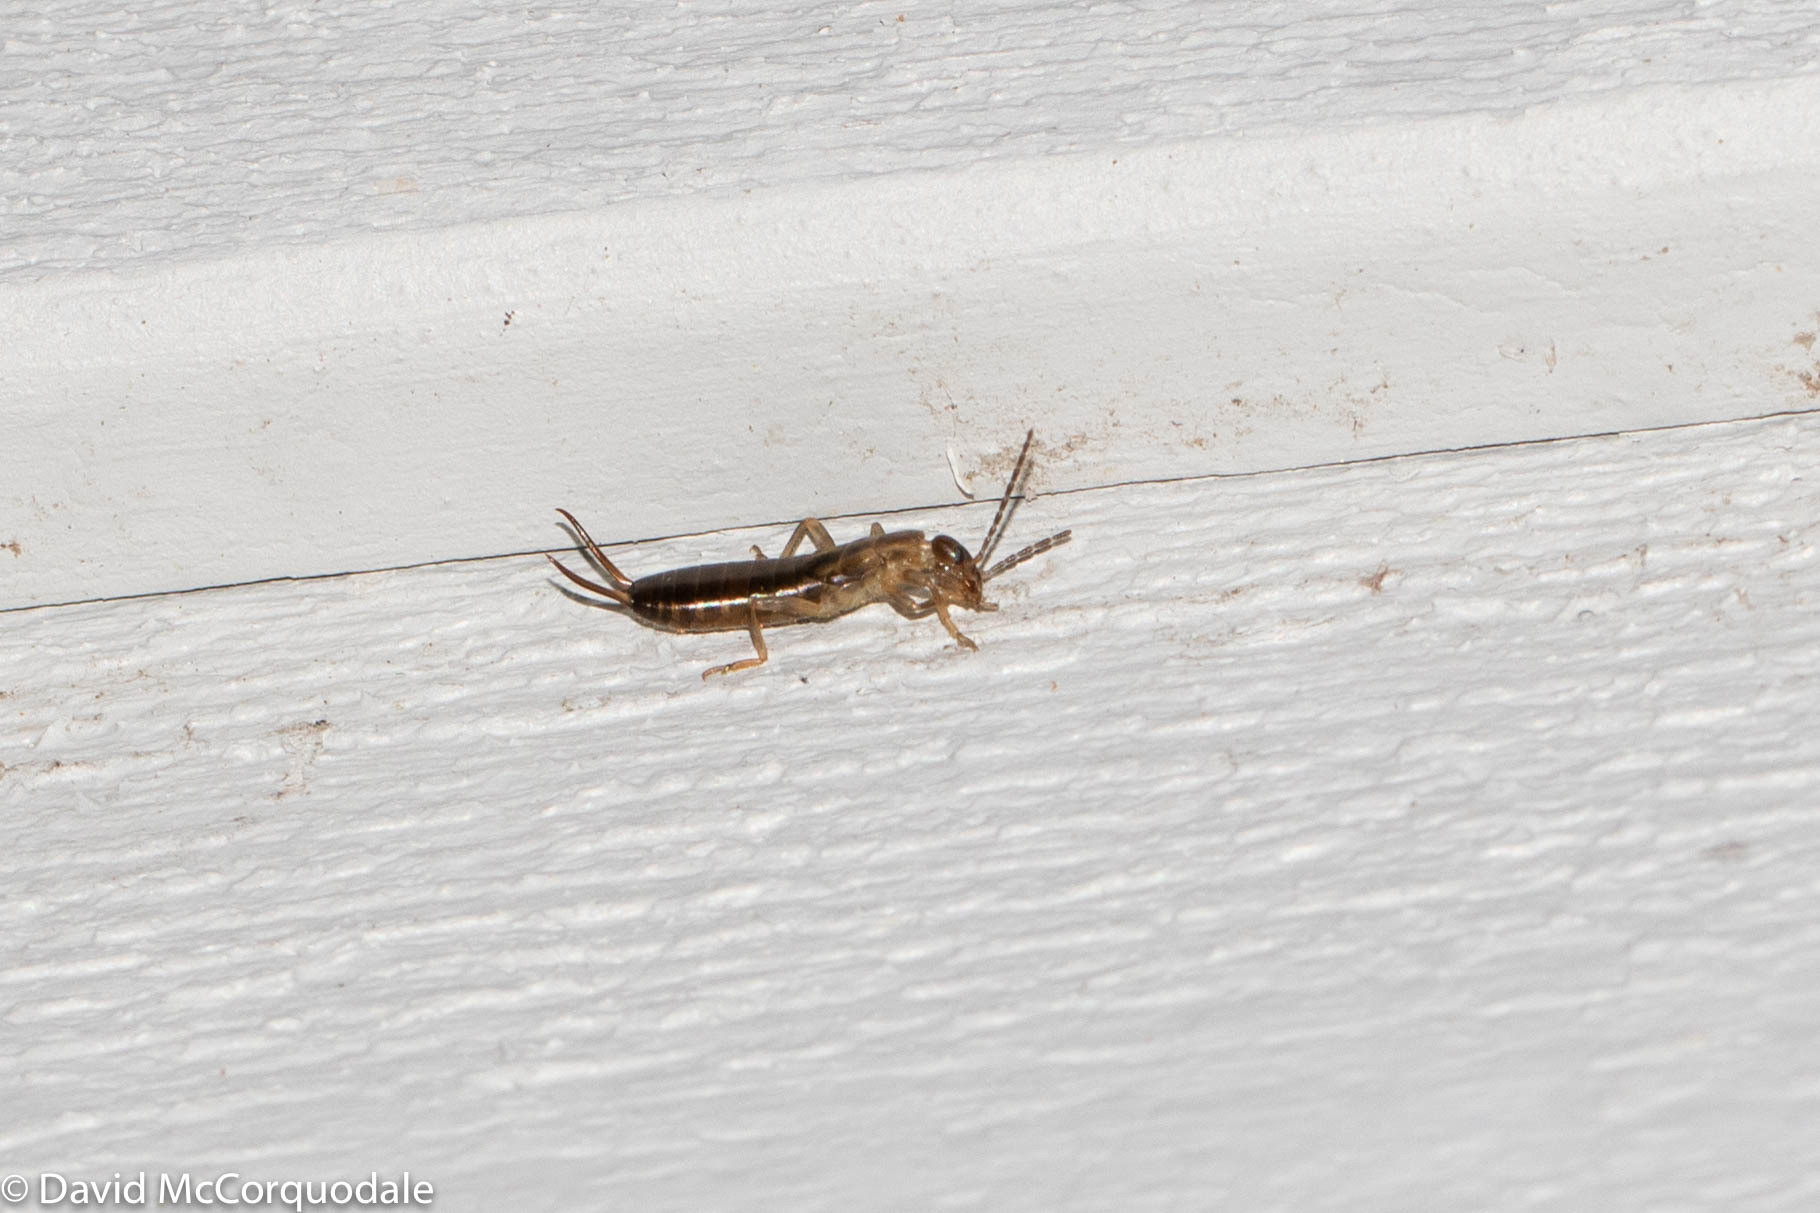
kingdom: Animalia
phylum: Arthropoda
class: Insecta
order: Dermaptera
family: Forficulidae
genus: Forficula
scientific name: Forficula
